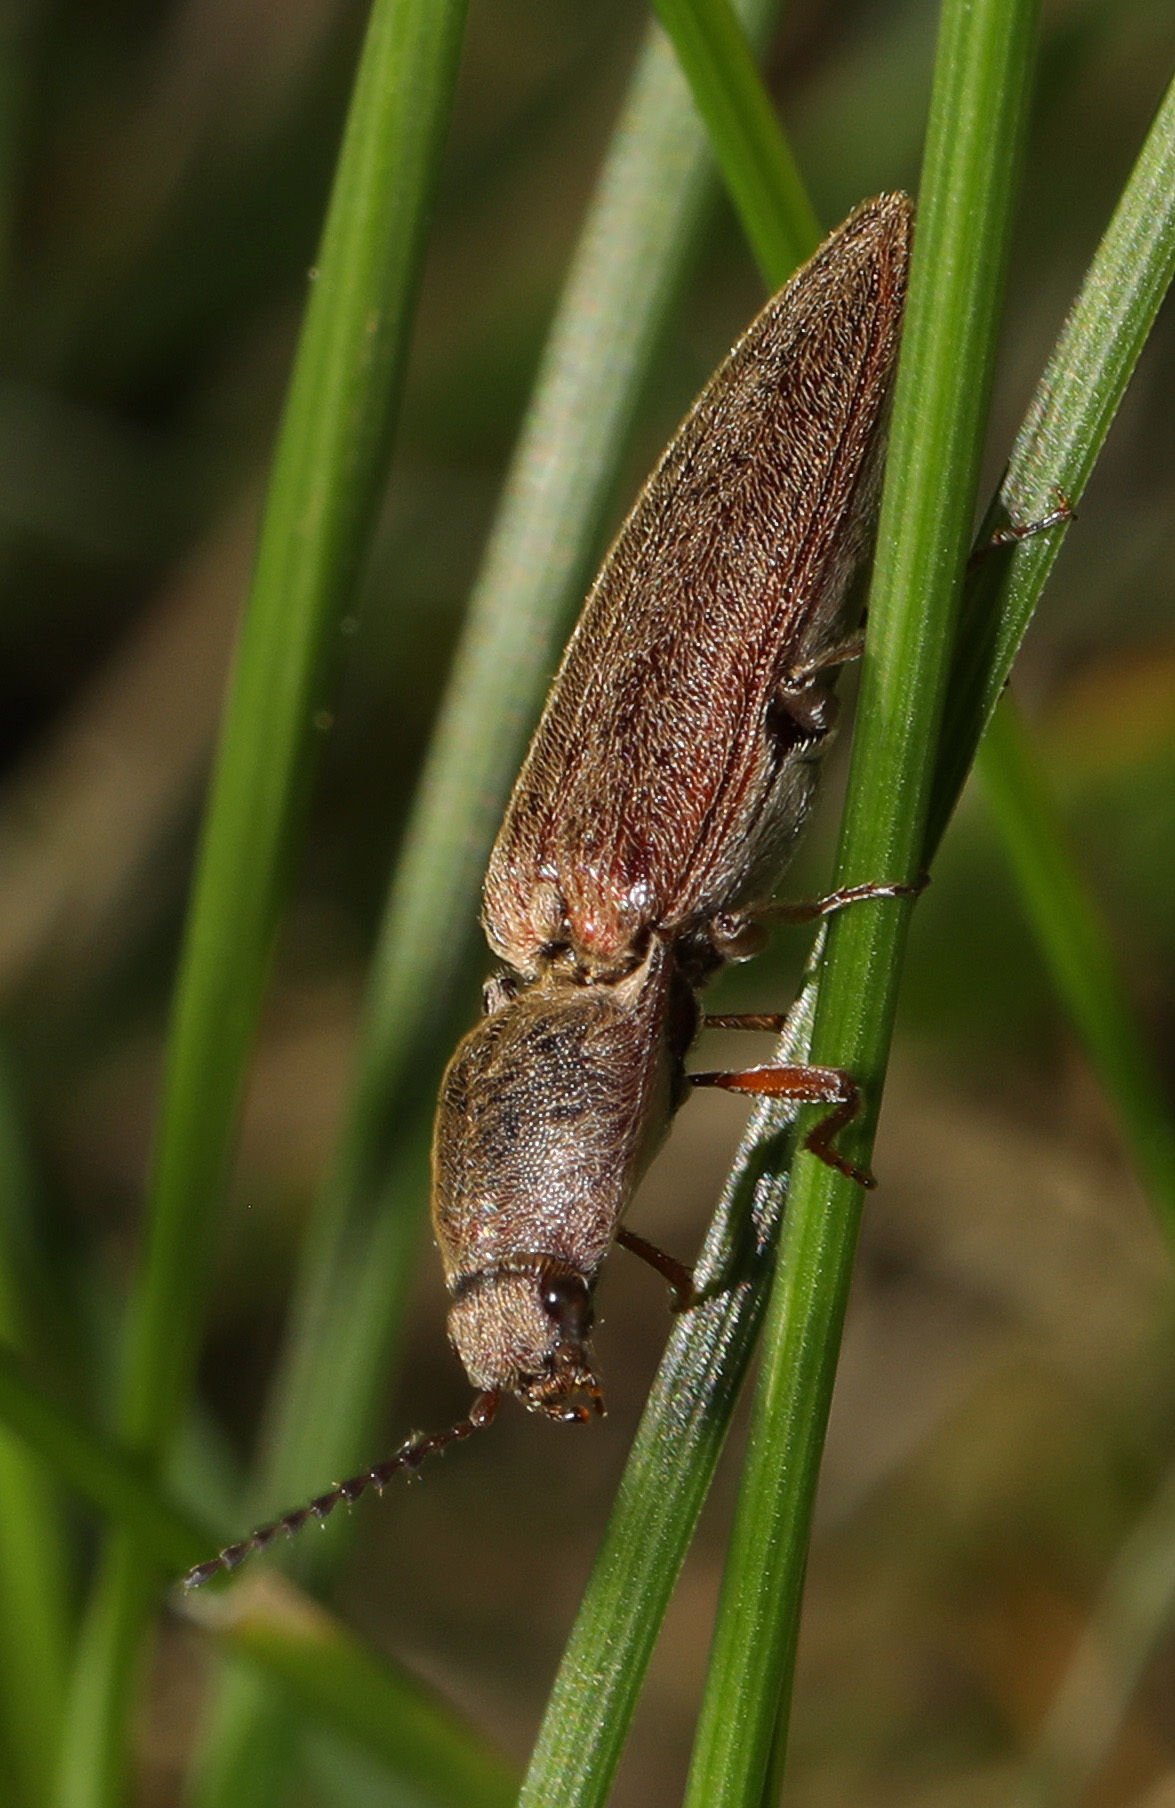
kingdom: Animalia
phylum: Arthropoda
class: Insecta
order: Coleoptera
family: Elateridae
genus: Gambrinus
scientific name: Gambrinus griseus
